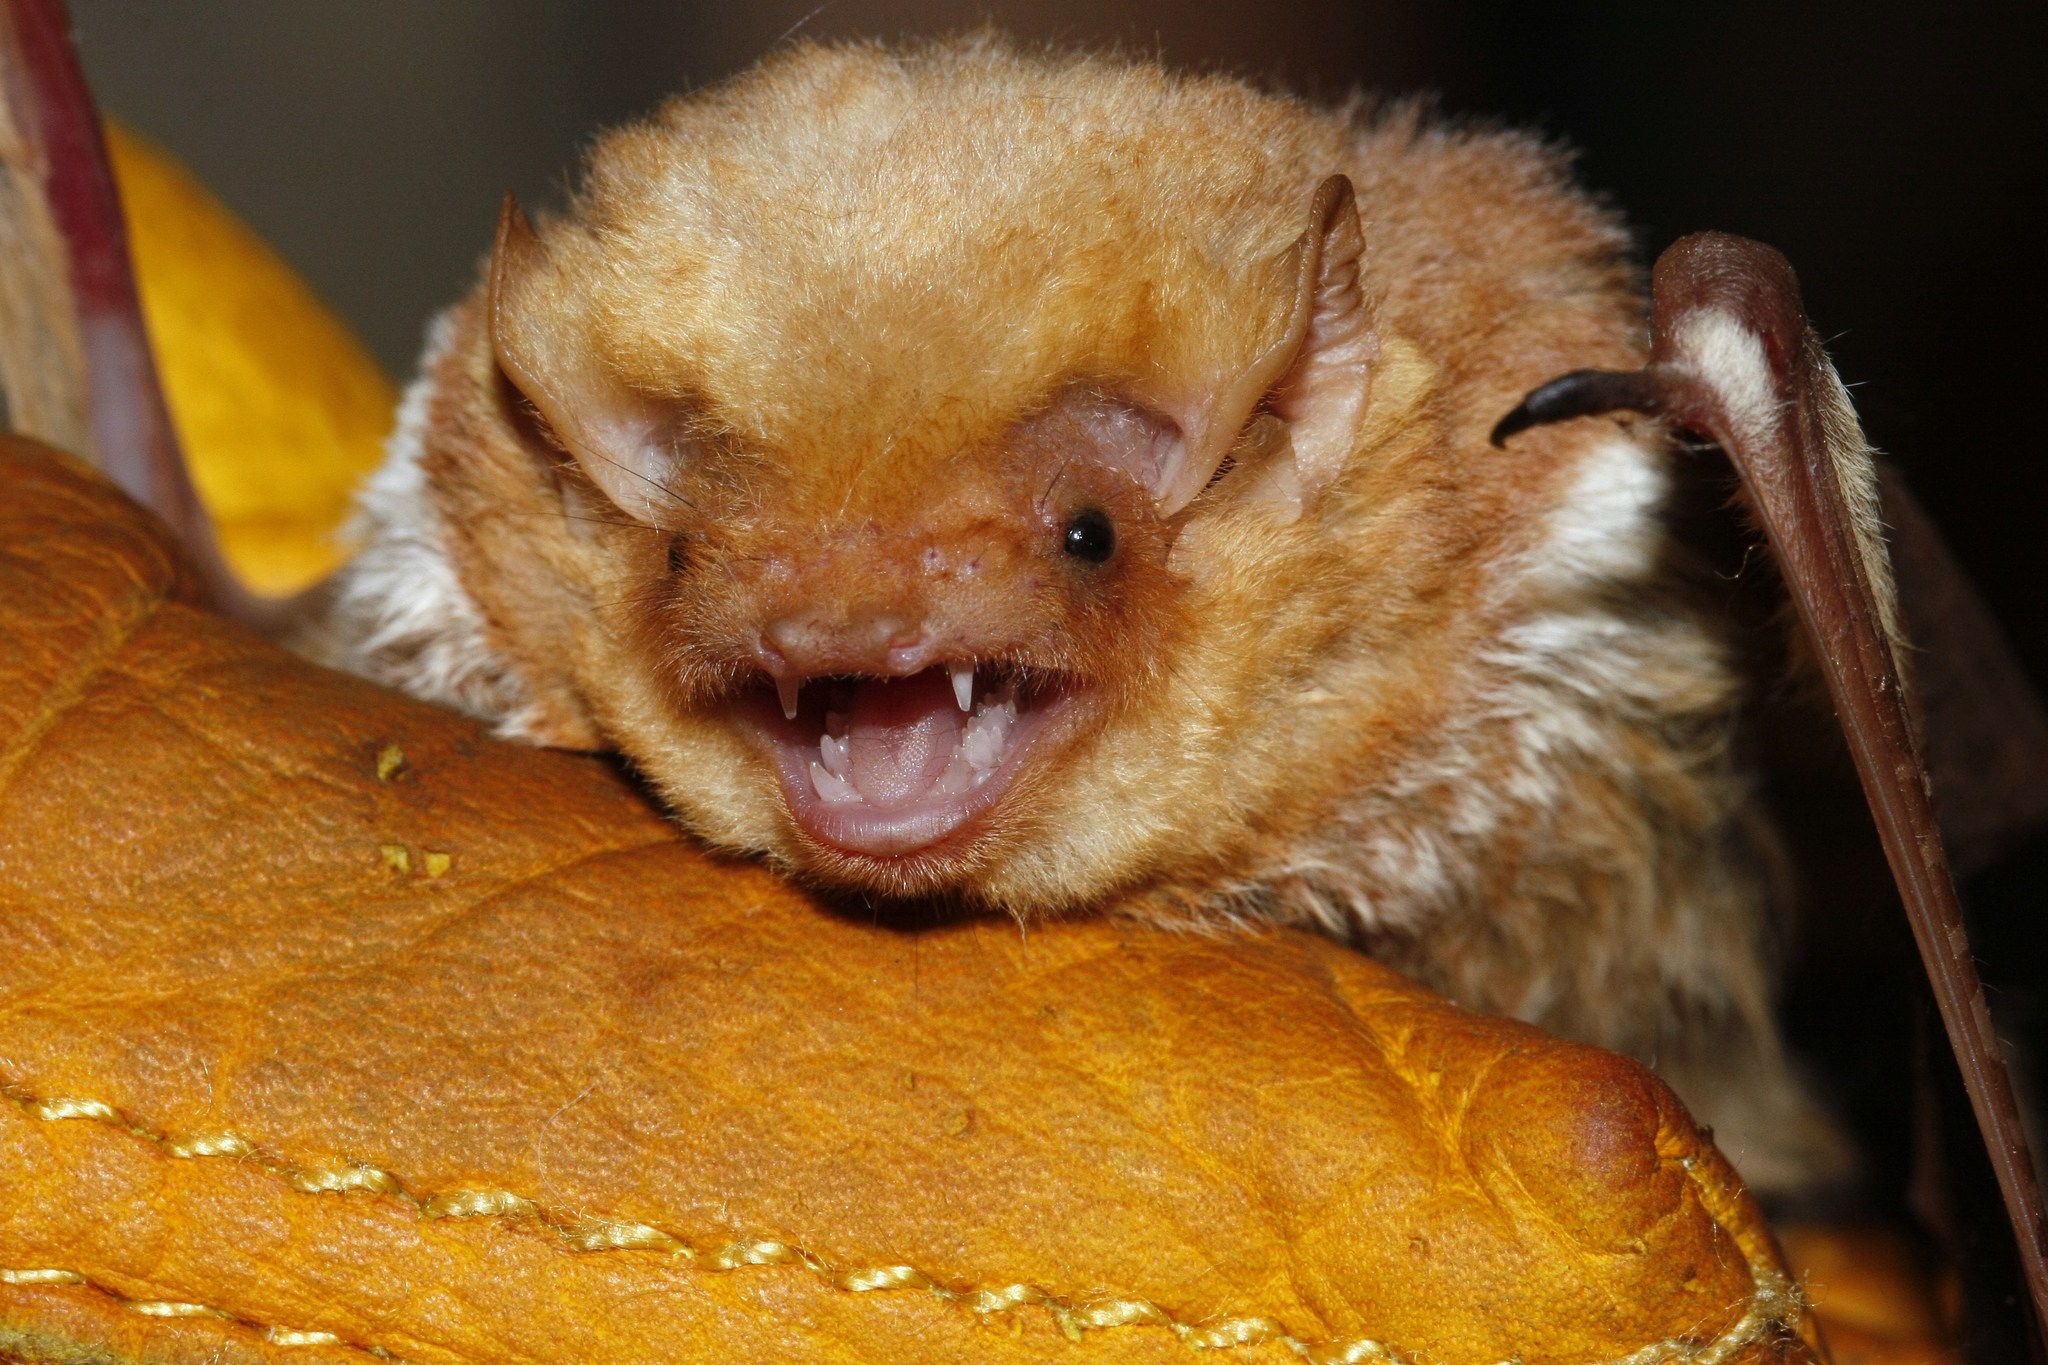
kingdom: Animalia
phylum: Chordata
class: Mammalia
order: Chiroptera
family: Vespertilionidae
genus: Lasiurus
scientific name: Lasiurus borealis
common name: Eastern red bat
